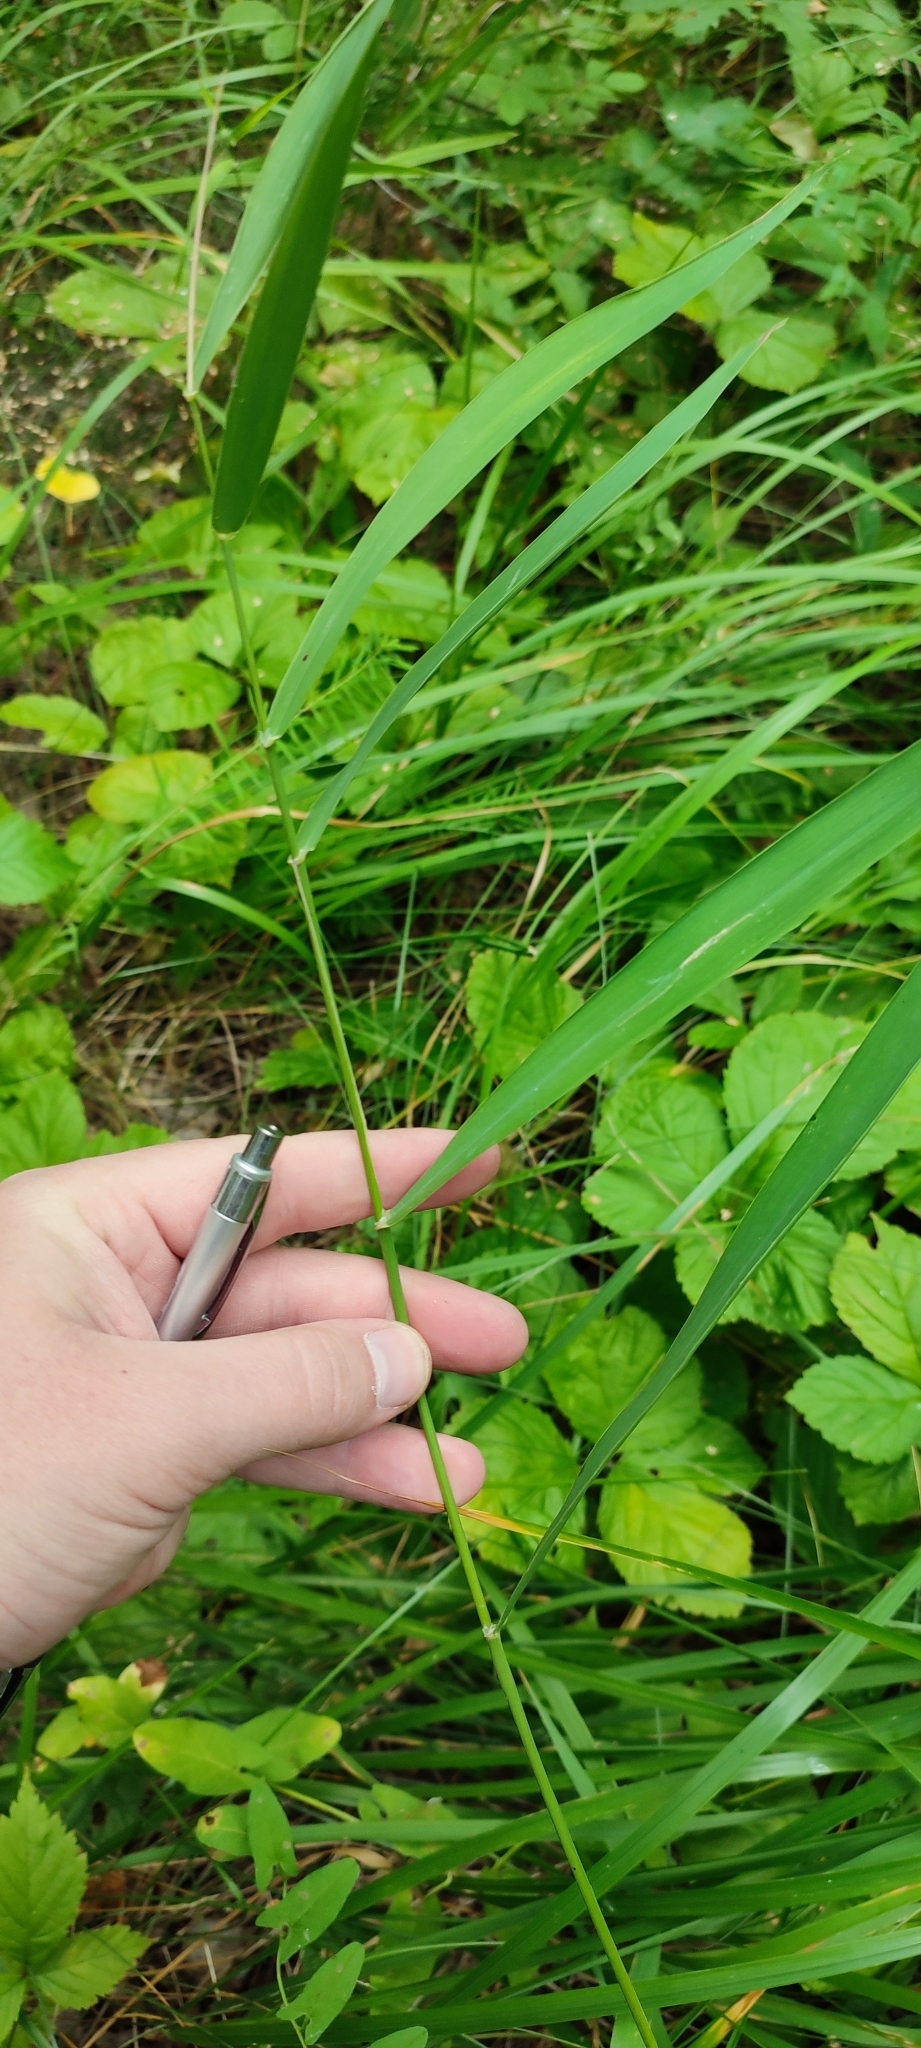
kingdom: Plantae
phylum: Tracheophyta
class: Liliopsida
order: Poales
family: Poaceae
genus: Phragmites
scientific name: Phragmites australis
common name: Common reed
